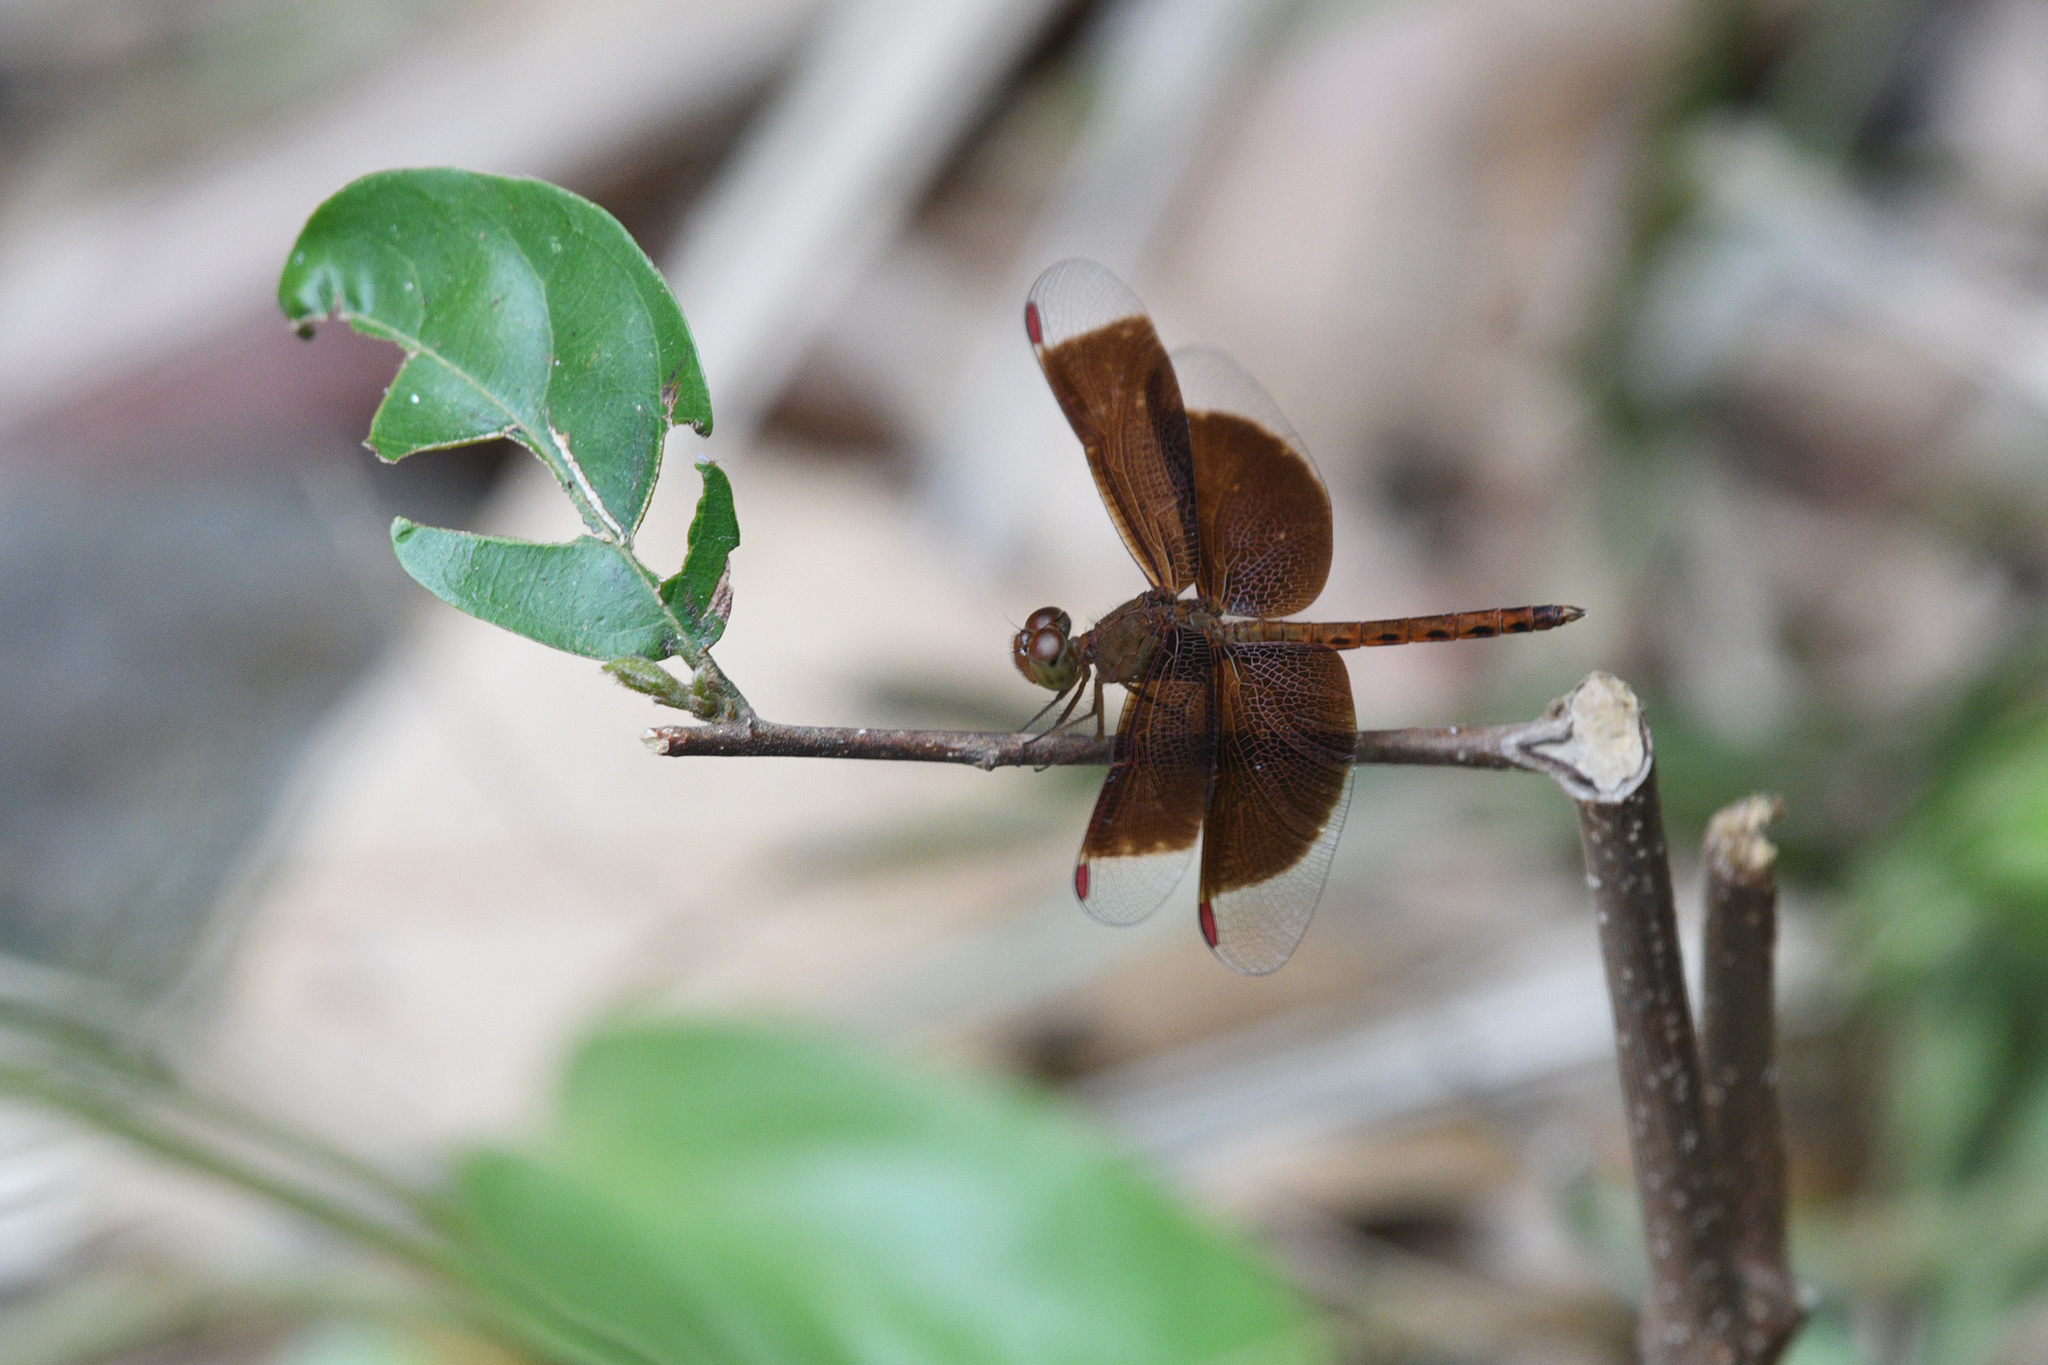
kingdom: Animalia
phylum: Arthropoda
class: Insecta
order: Odonata
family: Libellulidae
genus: Neurothemis
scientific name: Neurothemis fluctuans
